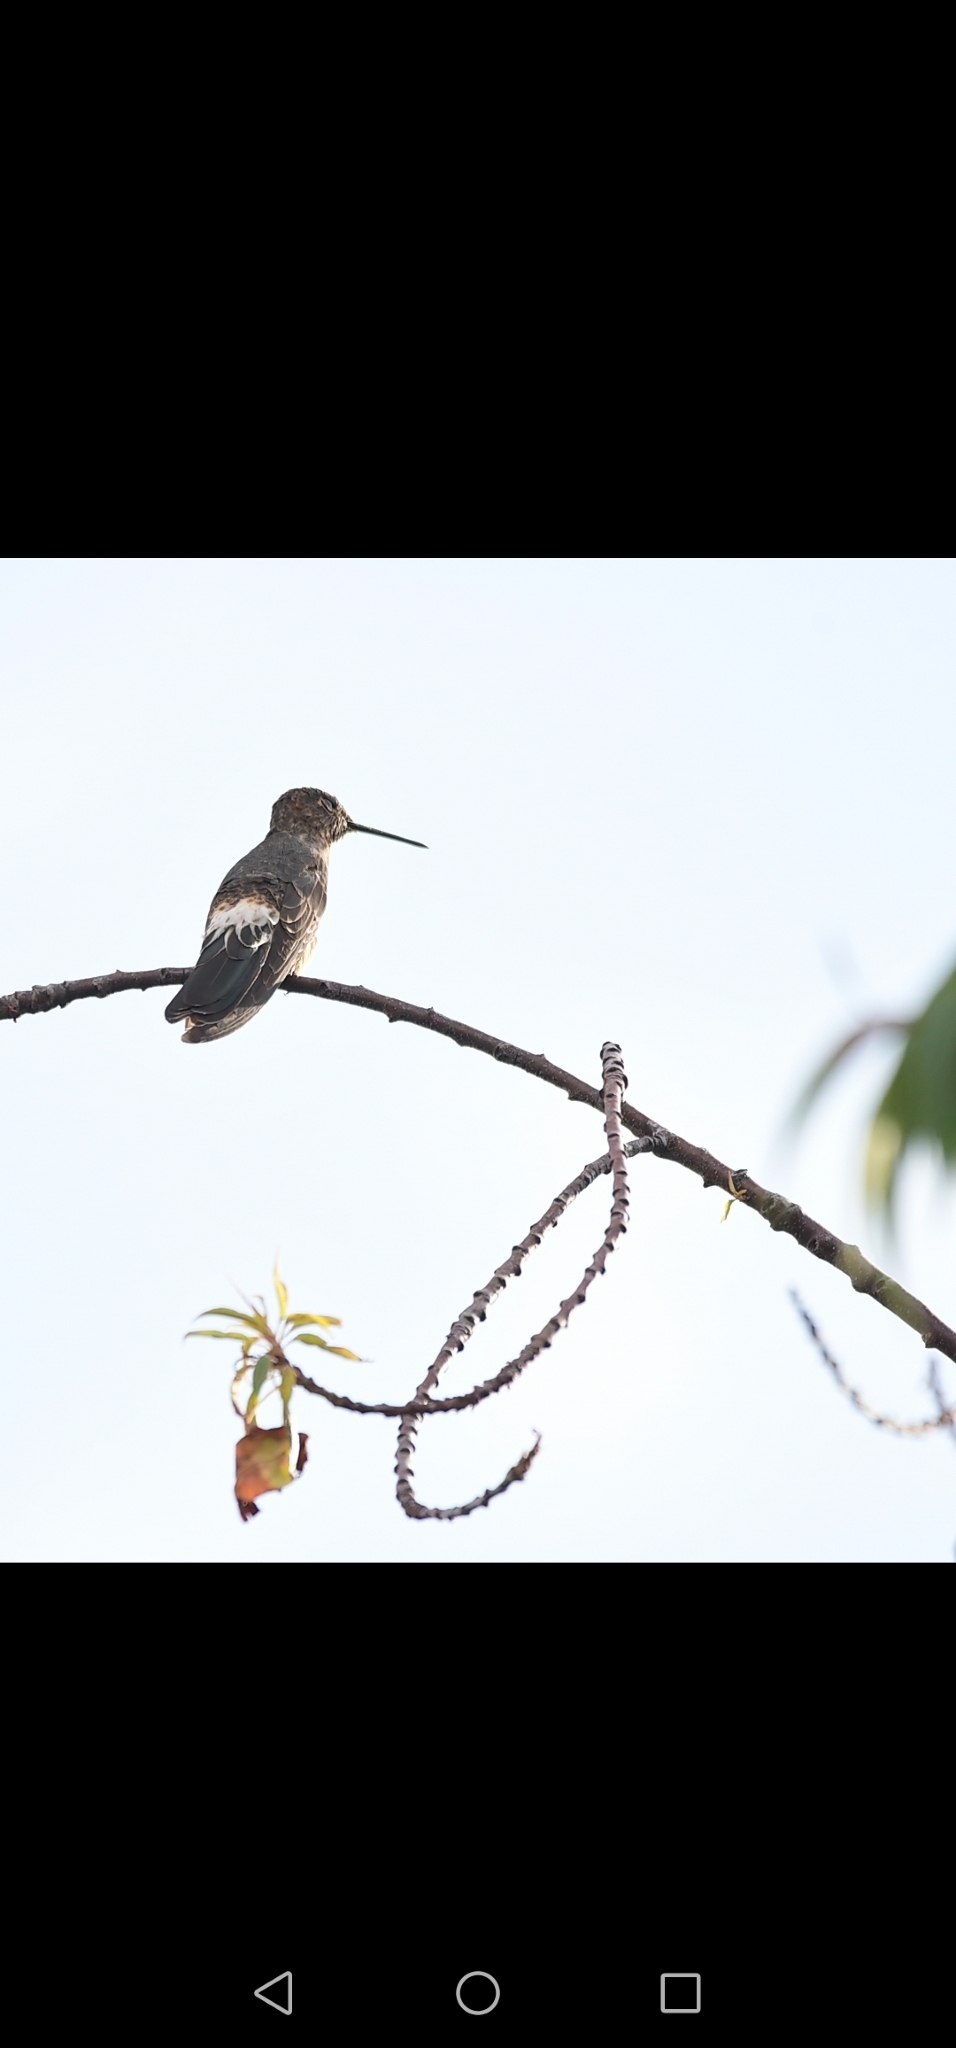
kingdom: Animalia
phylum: Chordata
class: Aves
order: Apodiformes
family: Trochilidae
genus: Patagona
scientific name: Patagona gigas
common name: Giant hummingbird
